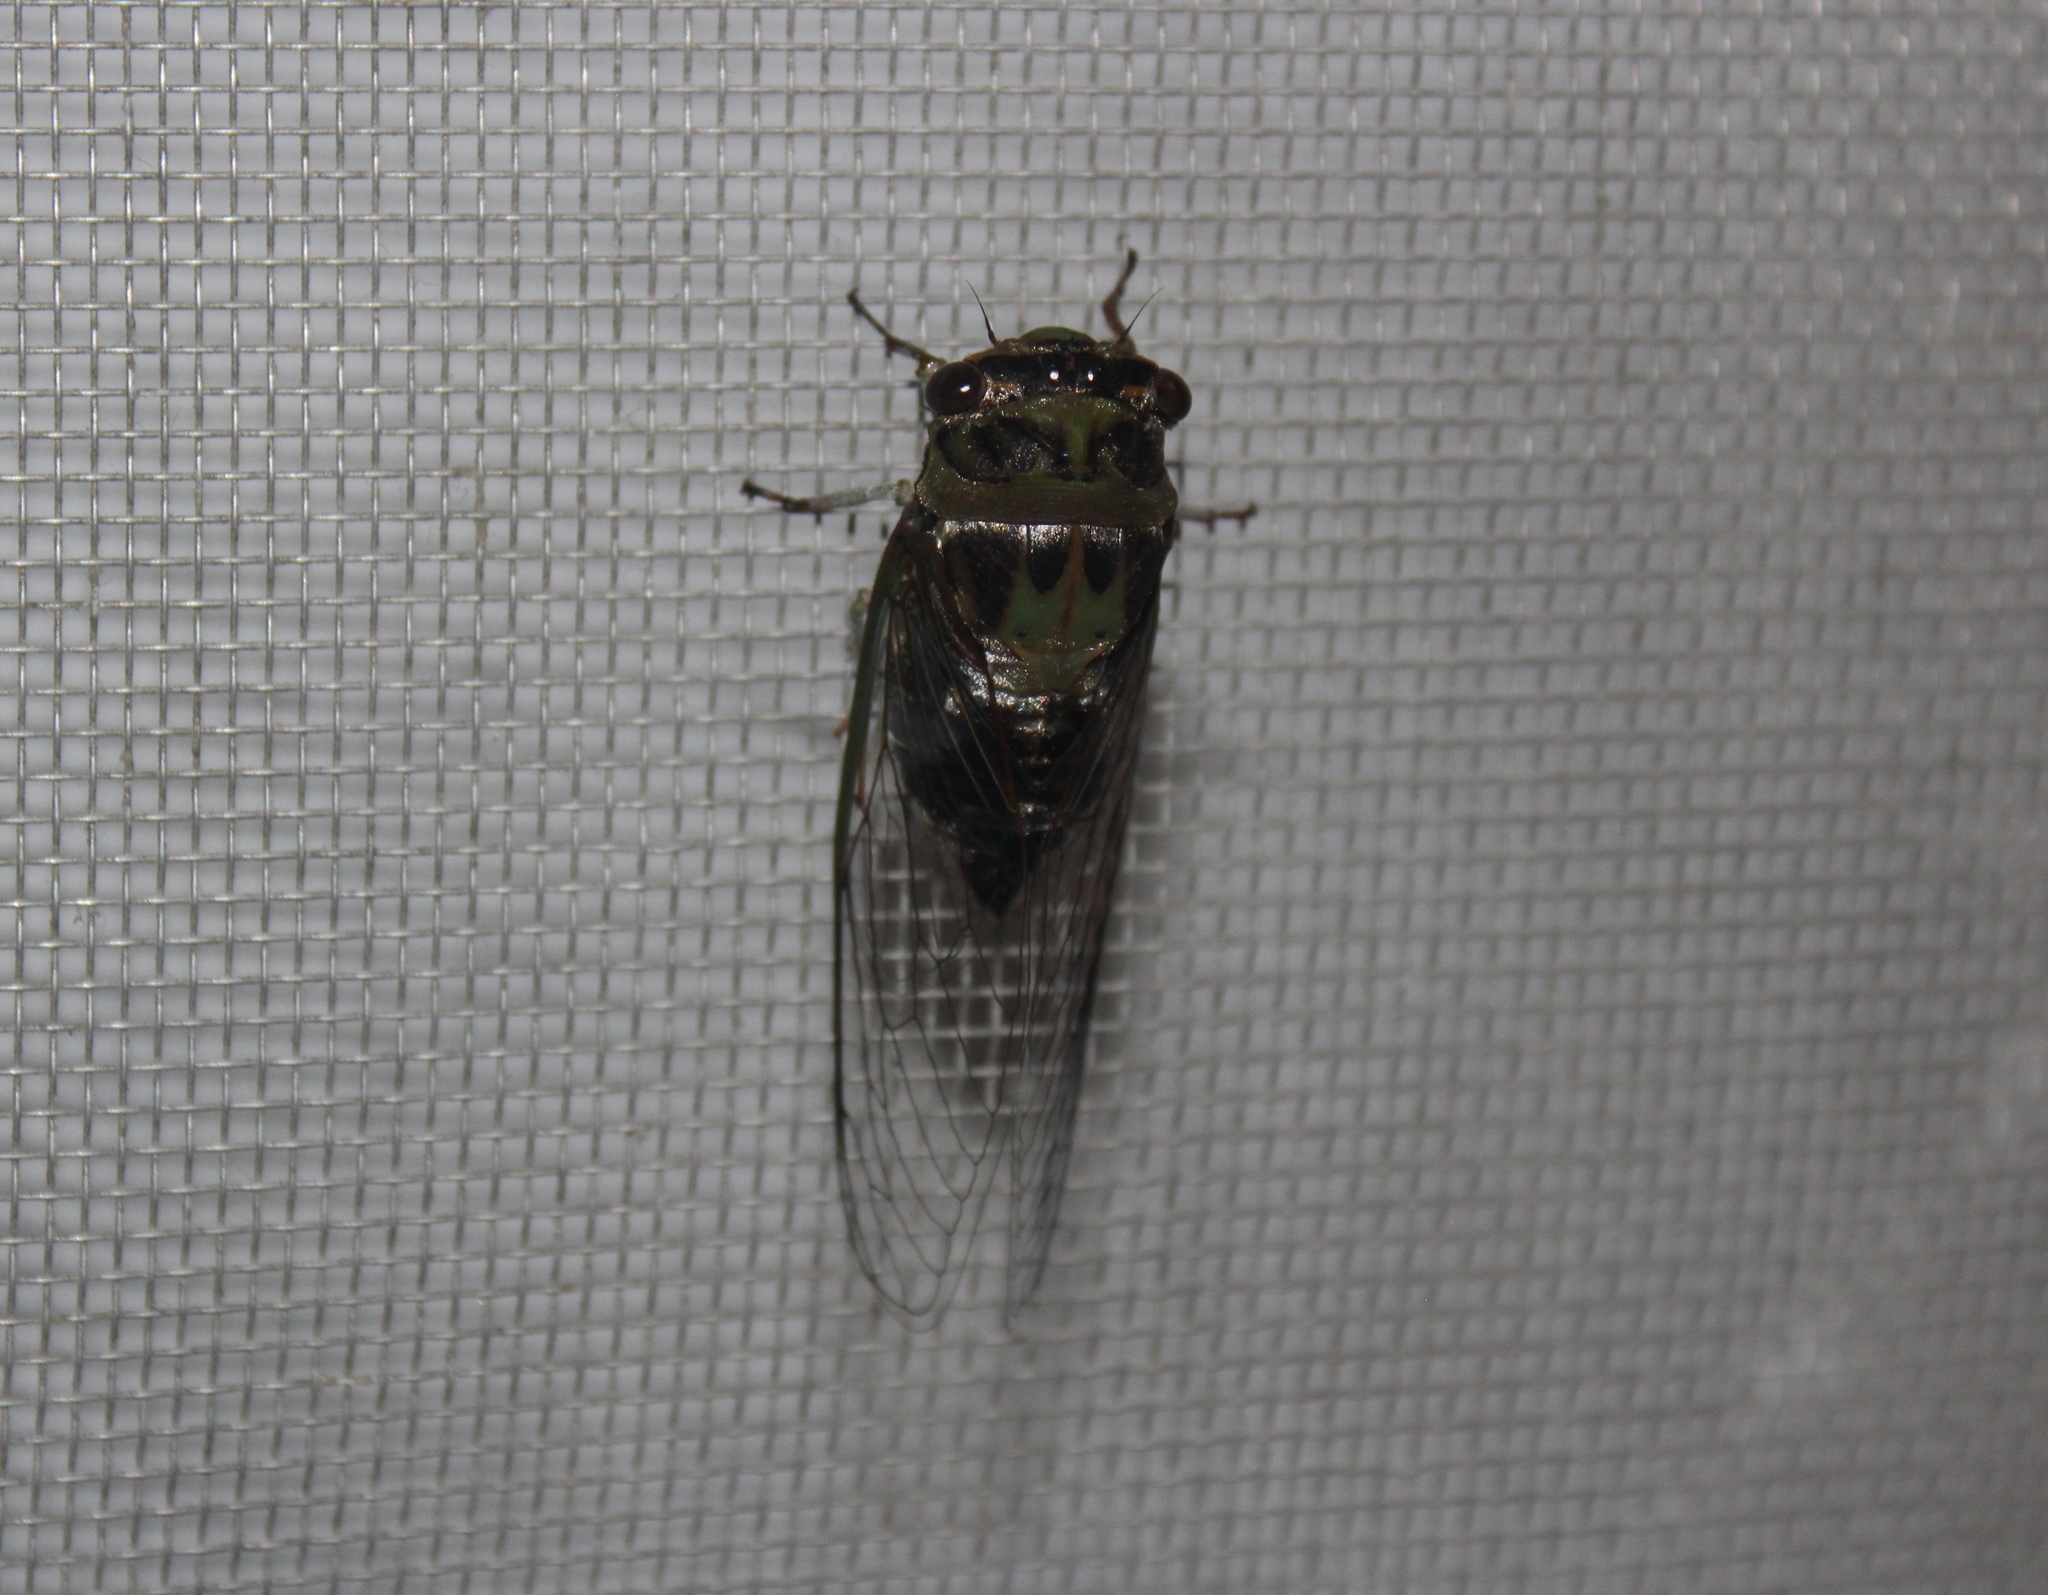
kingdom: Animalia
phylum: Arthropoda
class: Insecta
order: Hemiptera
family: Cicadidae
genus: Diceroprocta
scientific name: Diceroprocta heathi
